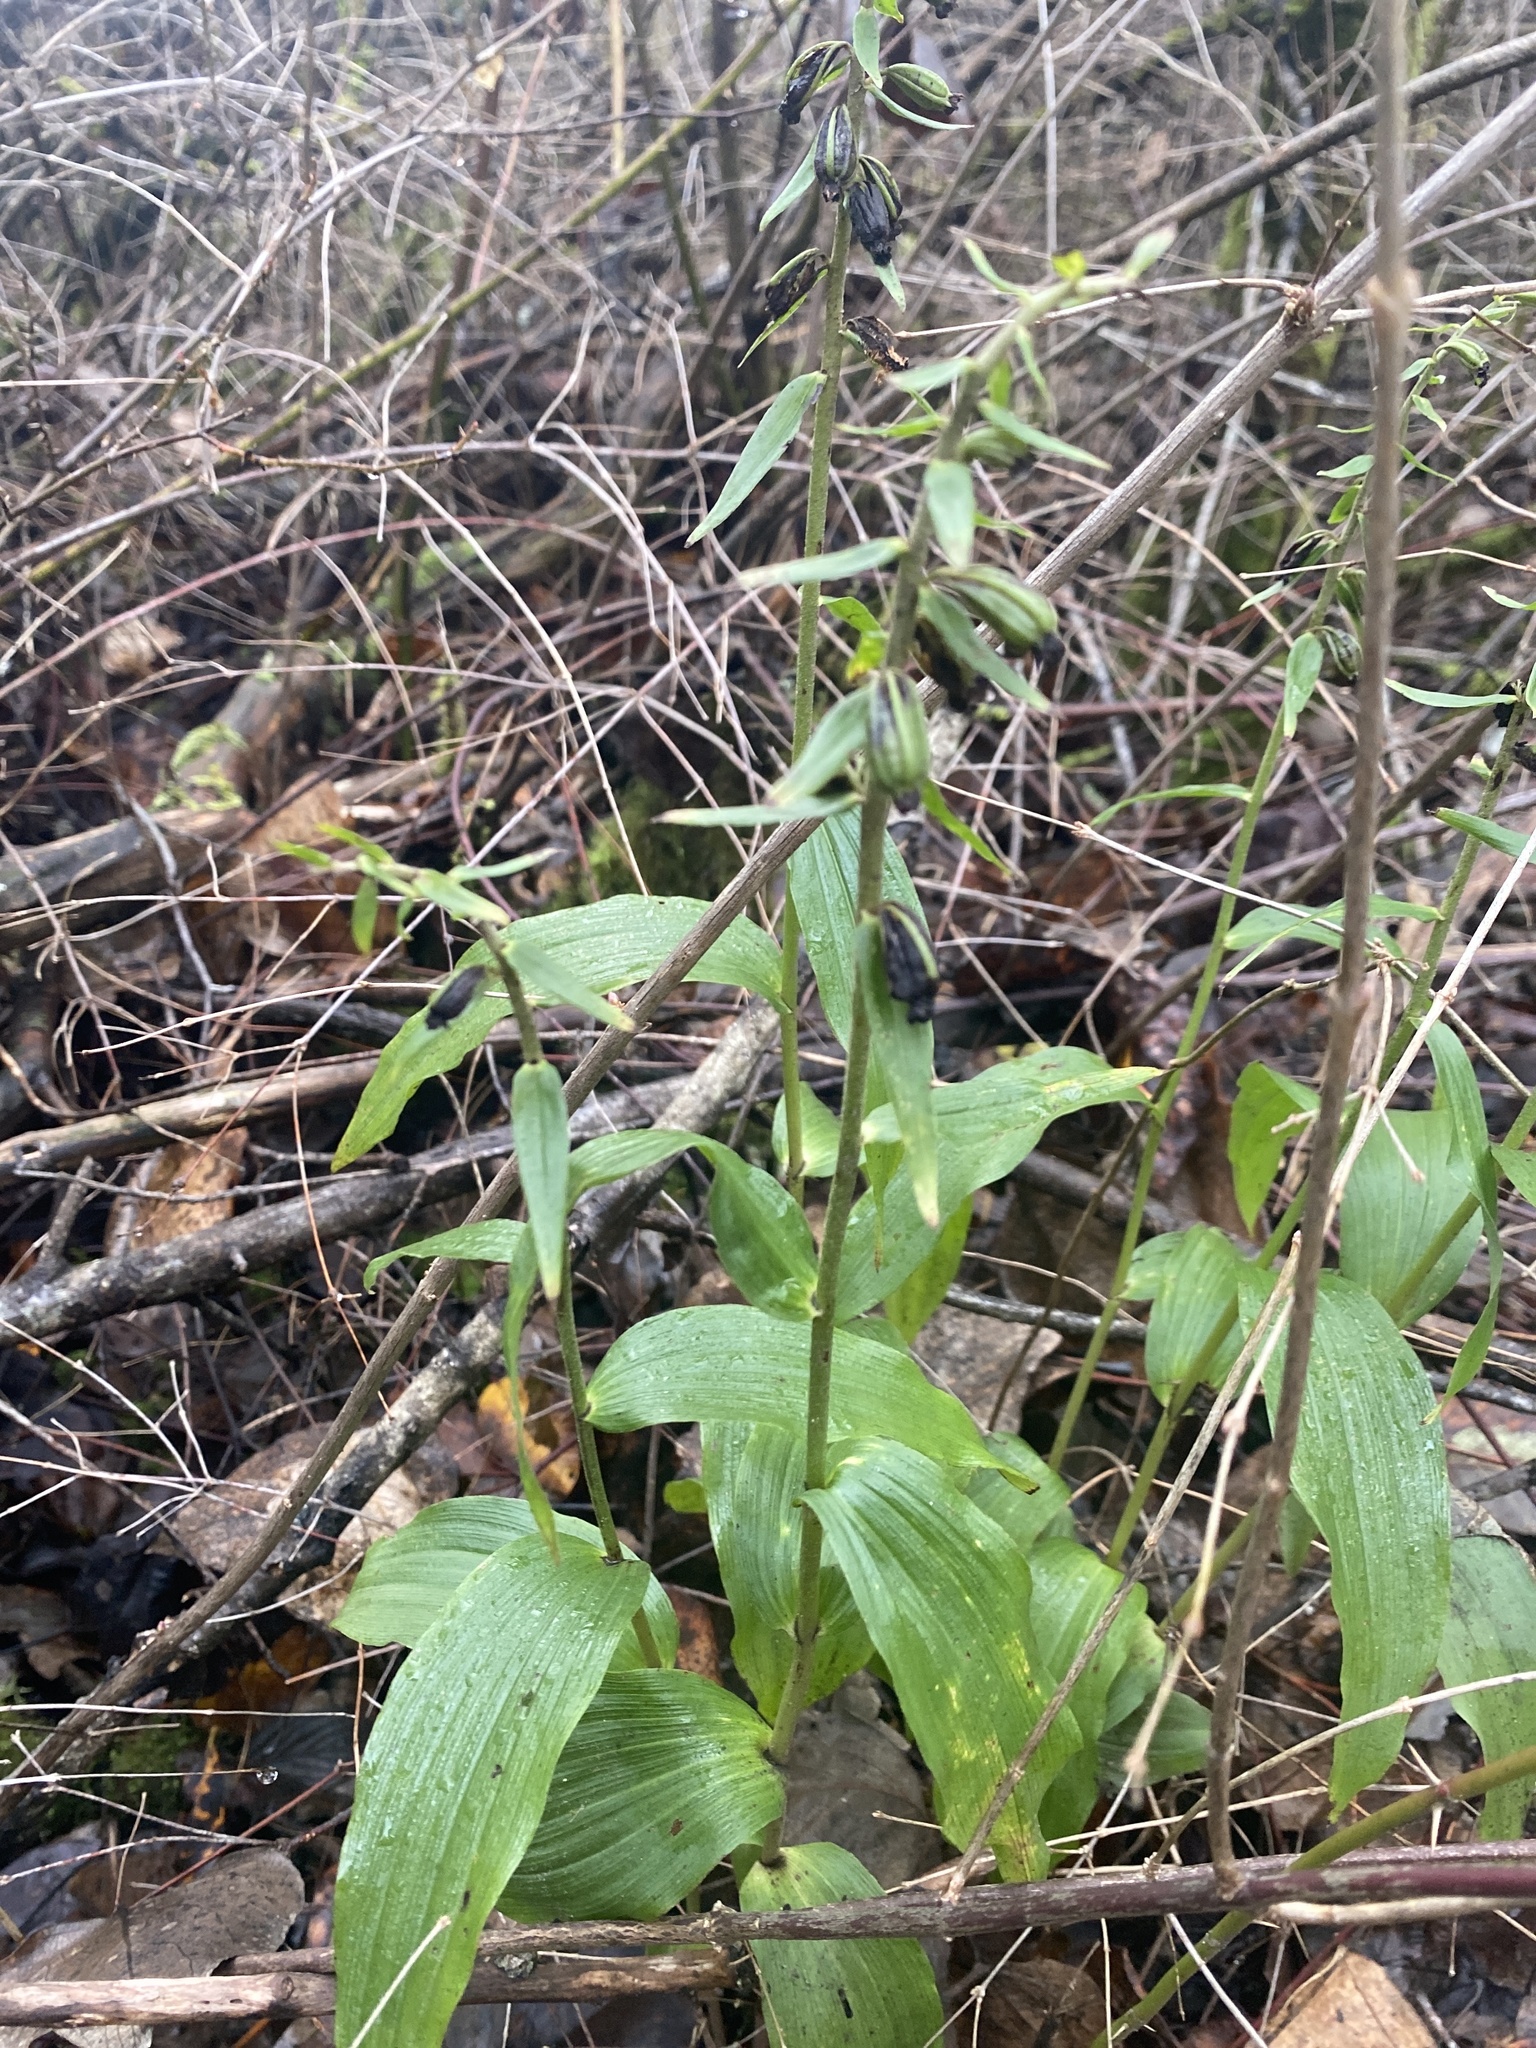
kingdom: Plantae
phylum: Tracheophyta
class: Liliopsida
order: Asparagales
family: Orchidaceae
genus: Epipactis
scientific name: Epipactis helleborine
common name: Broad-leaved helleborine
